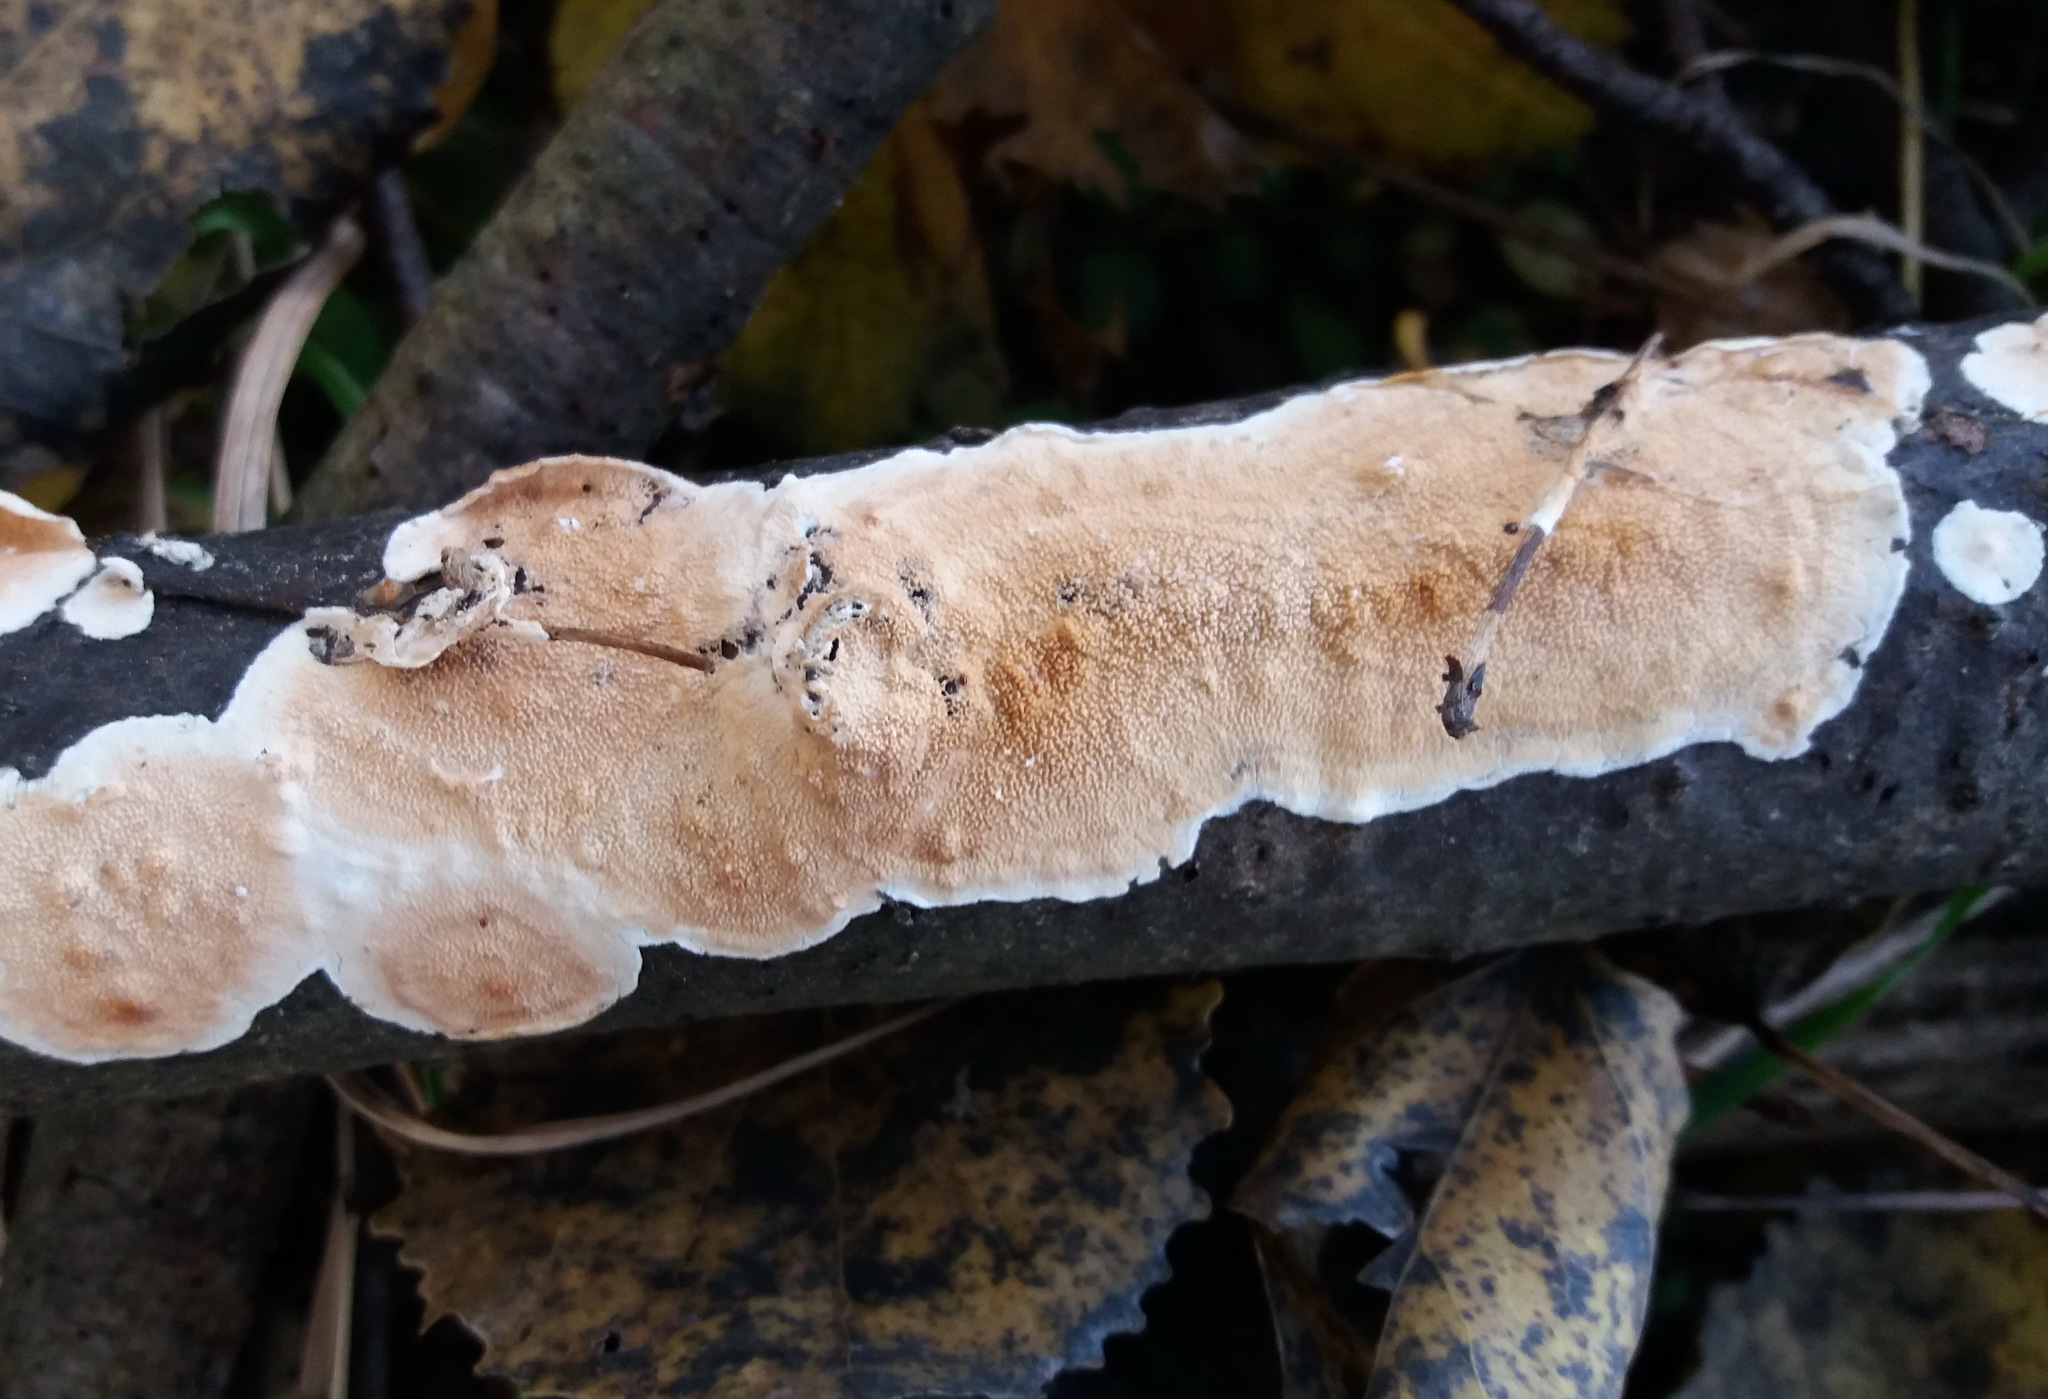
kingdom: Fungi
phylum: Basidiomycota
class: Agaricomycetes
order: Polyporales
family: Steccherinaceae
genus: Steccherinum
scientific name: Steccherinum ochraceum
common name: Ochre spreading tooth
